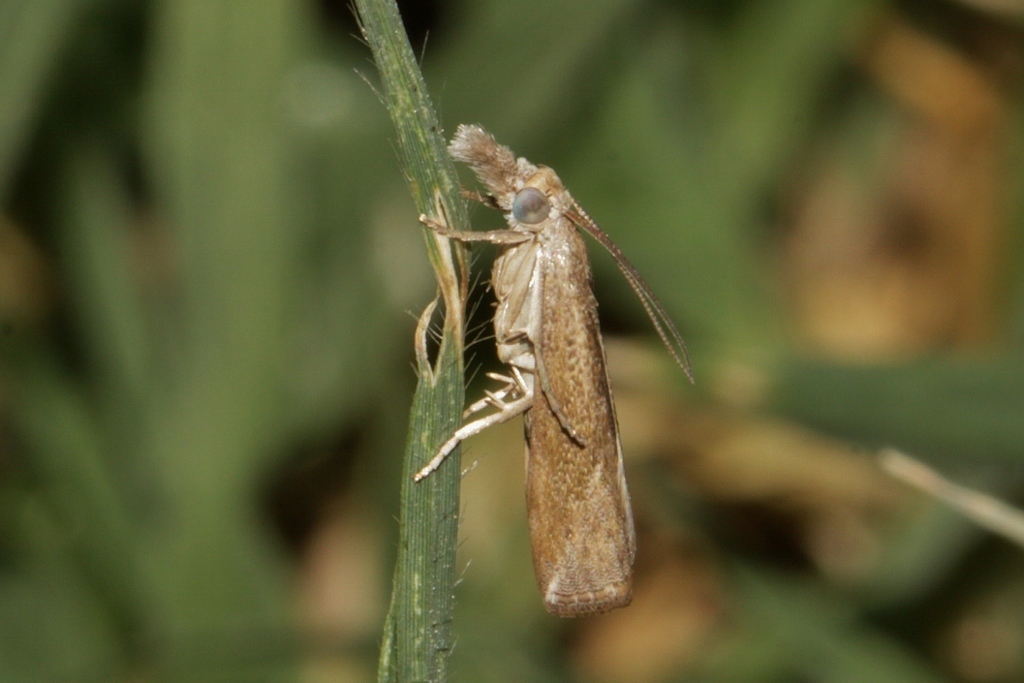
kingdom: Animalia
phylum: Arthropoda
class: Insecta
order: Lepidoptera
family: Crambidae
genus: Diasemia
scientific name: Diasemia monostigma
